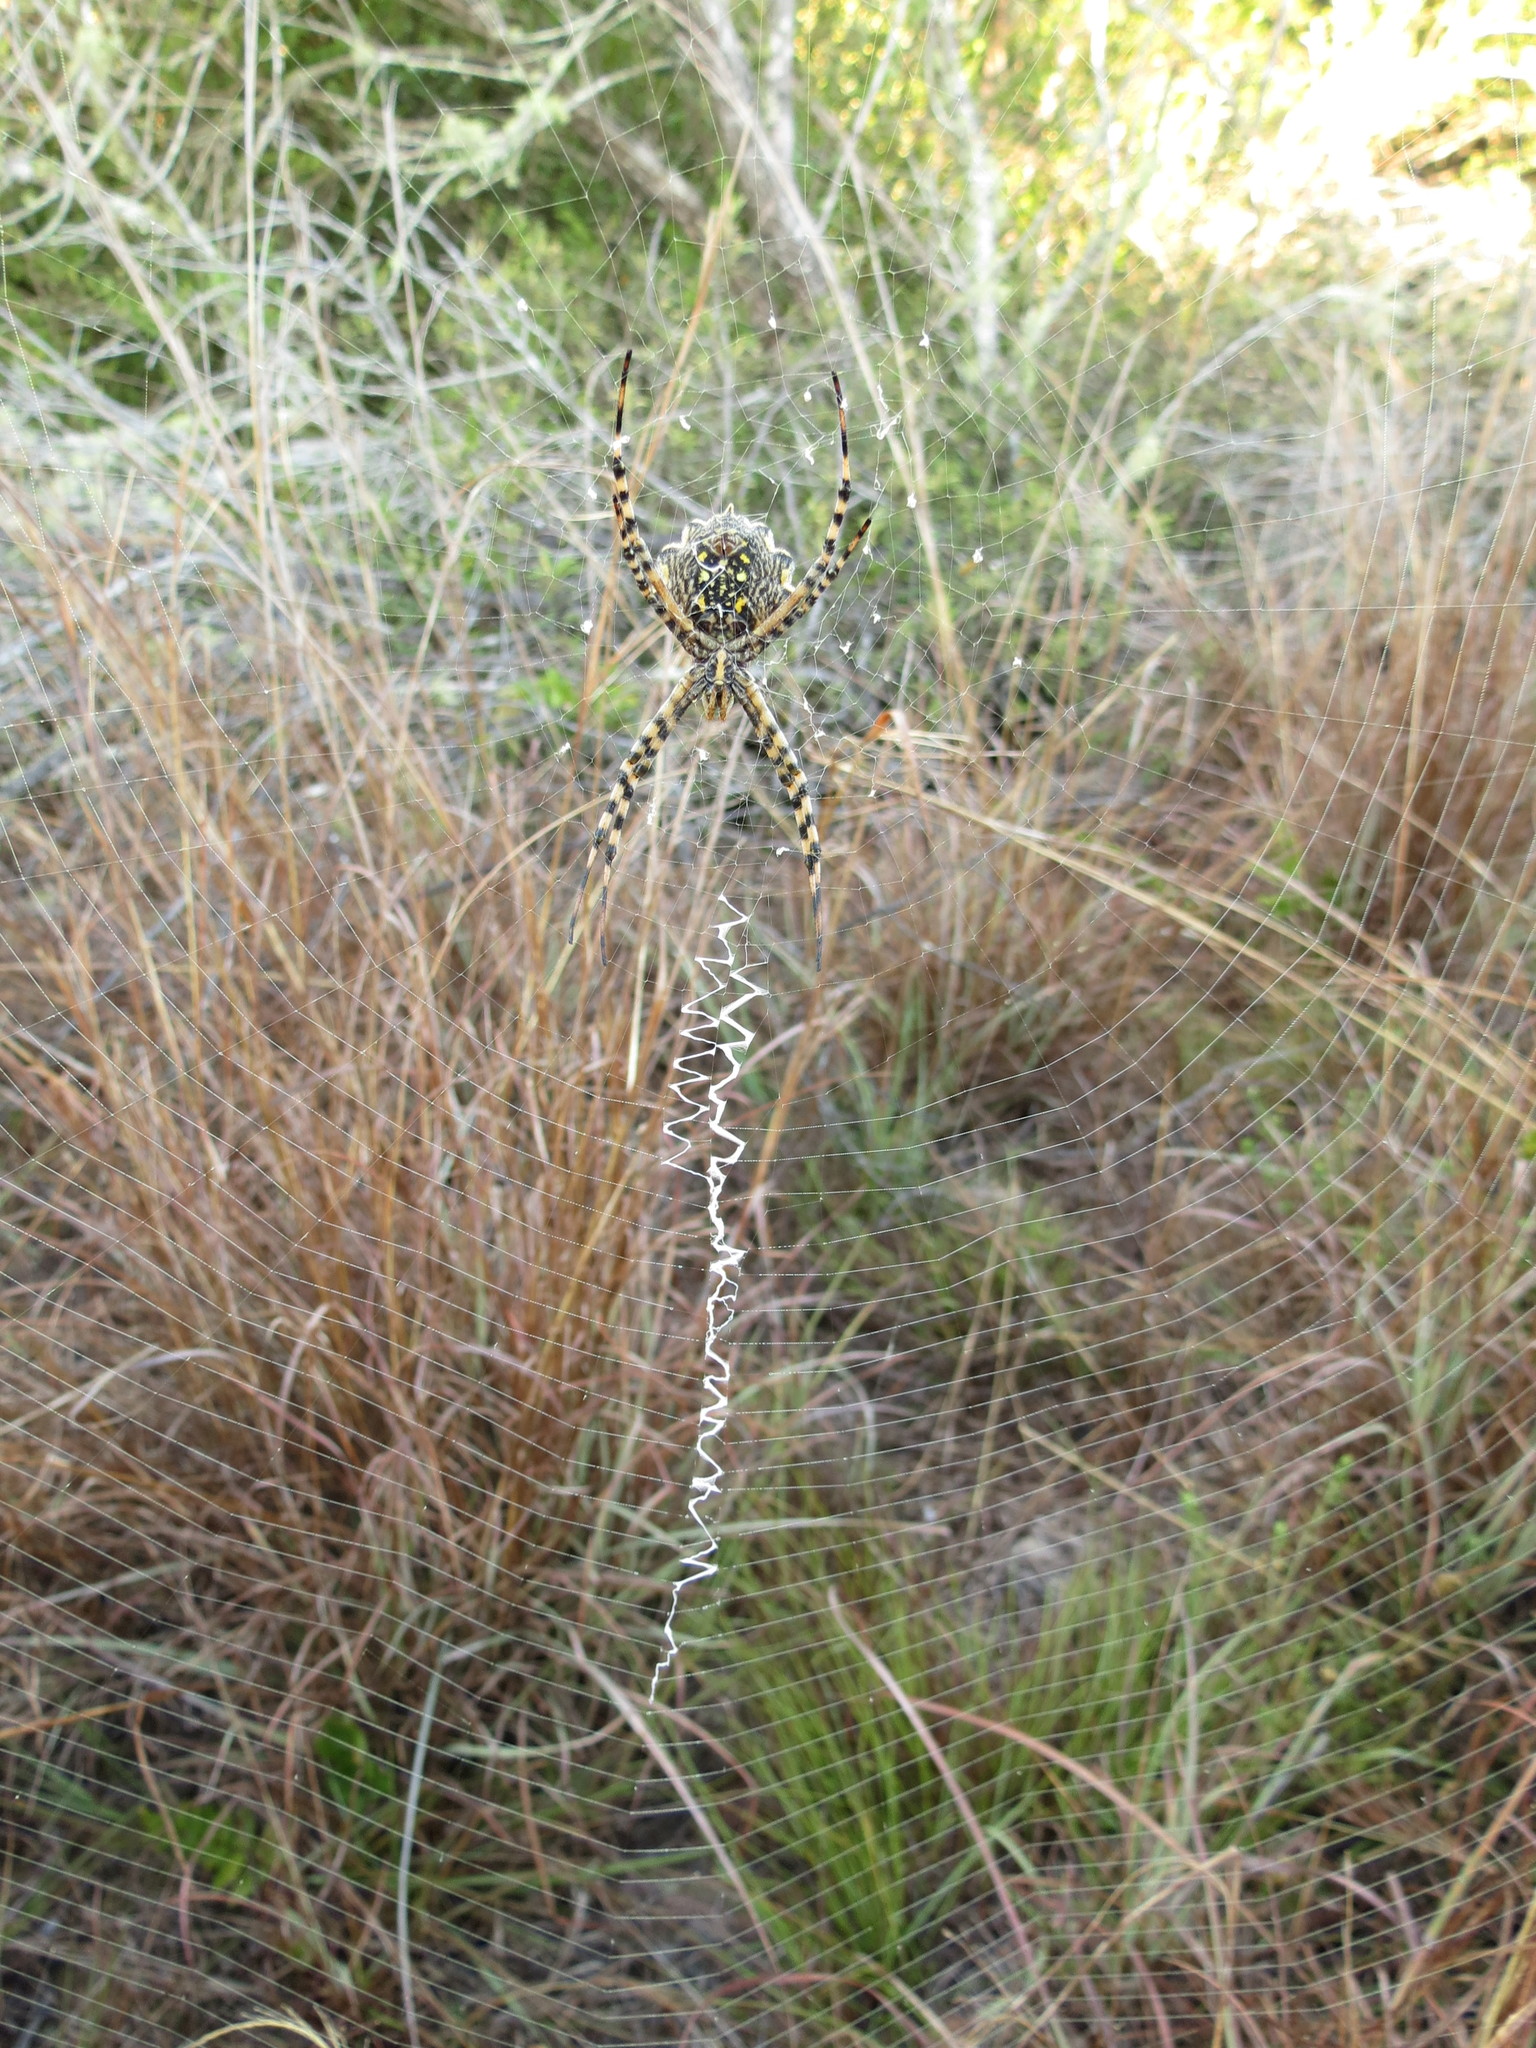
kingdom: Animalia
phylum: Arthropoda
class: Arachnida
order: Araneae
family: Araneidae
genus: Argiope
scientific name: Argiope australis
